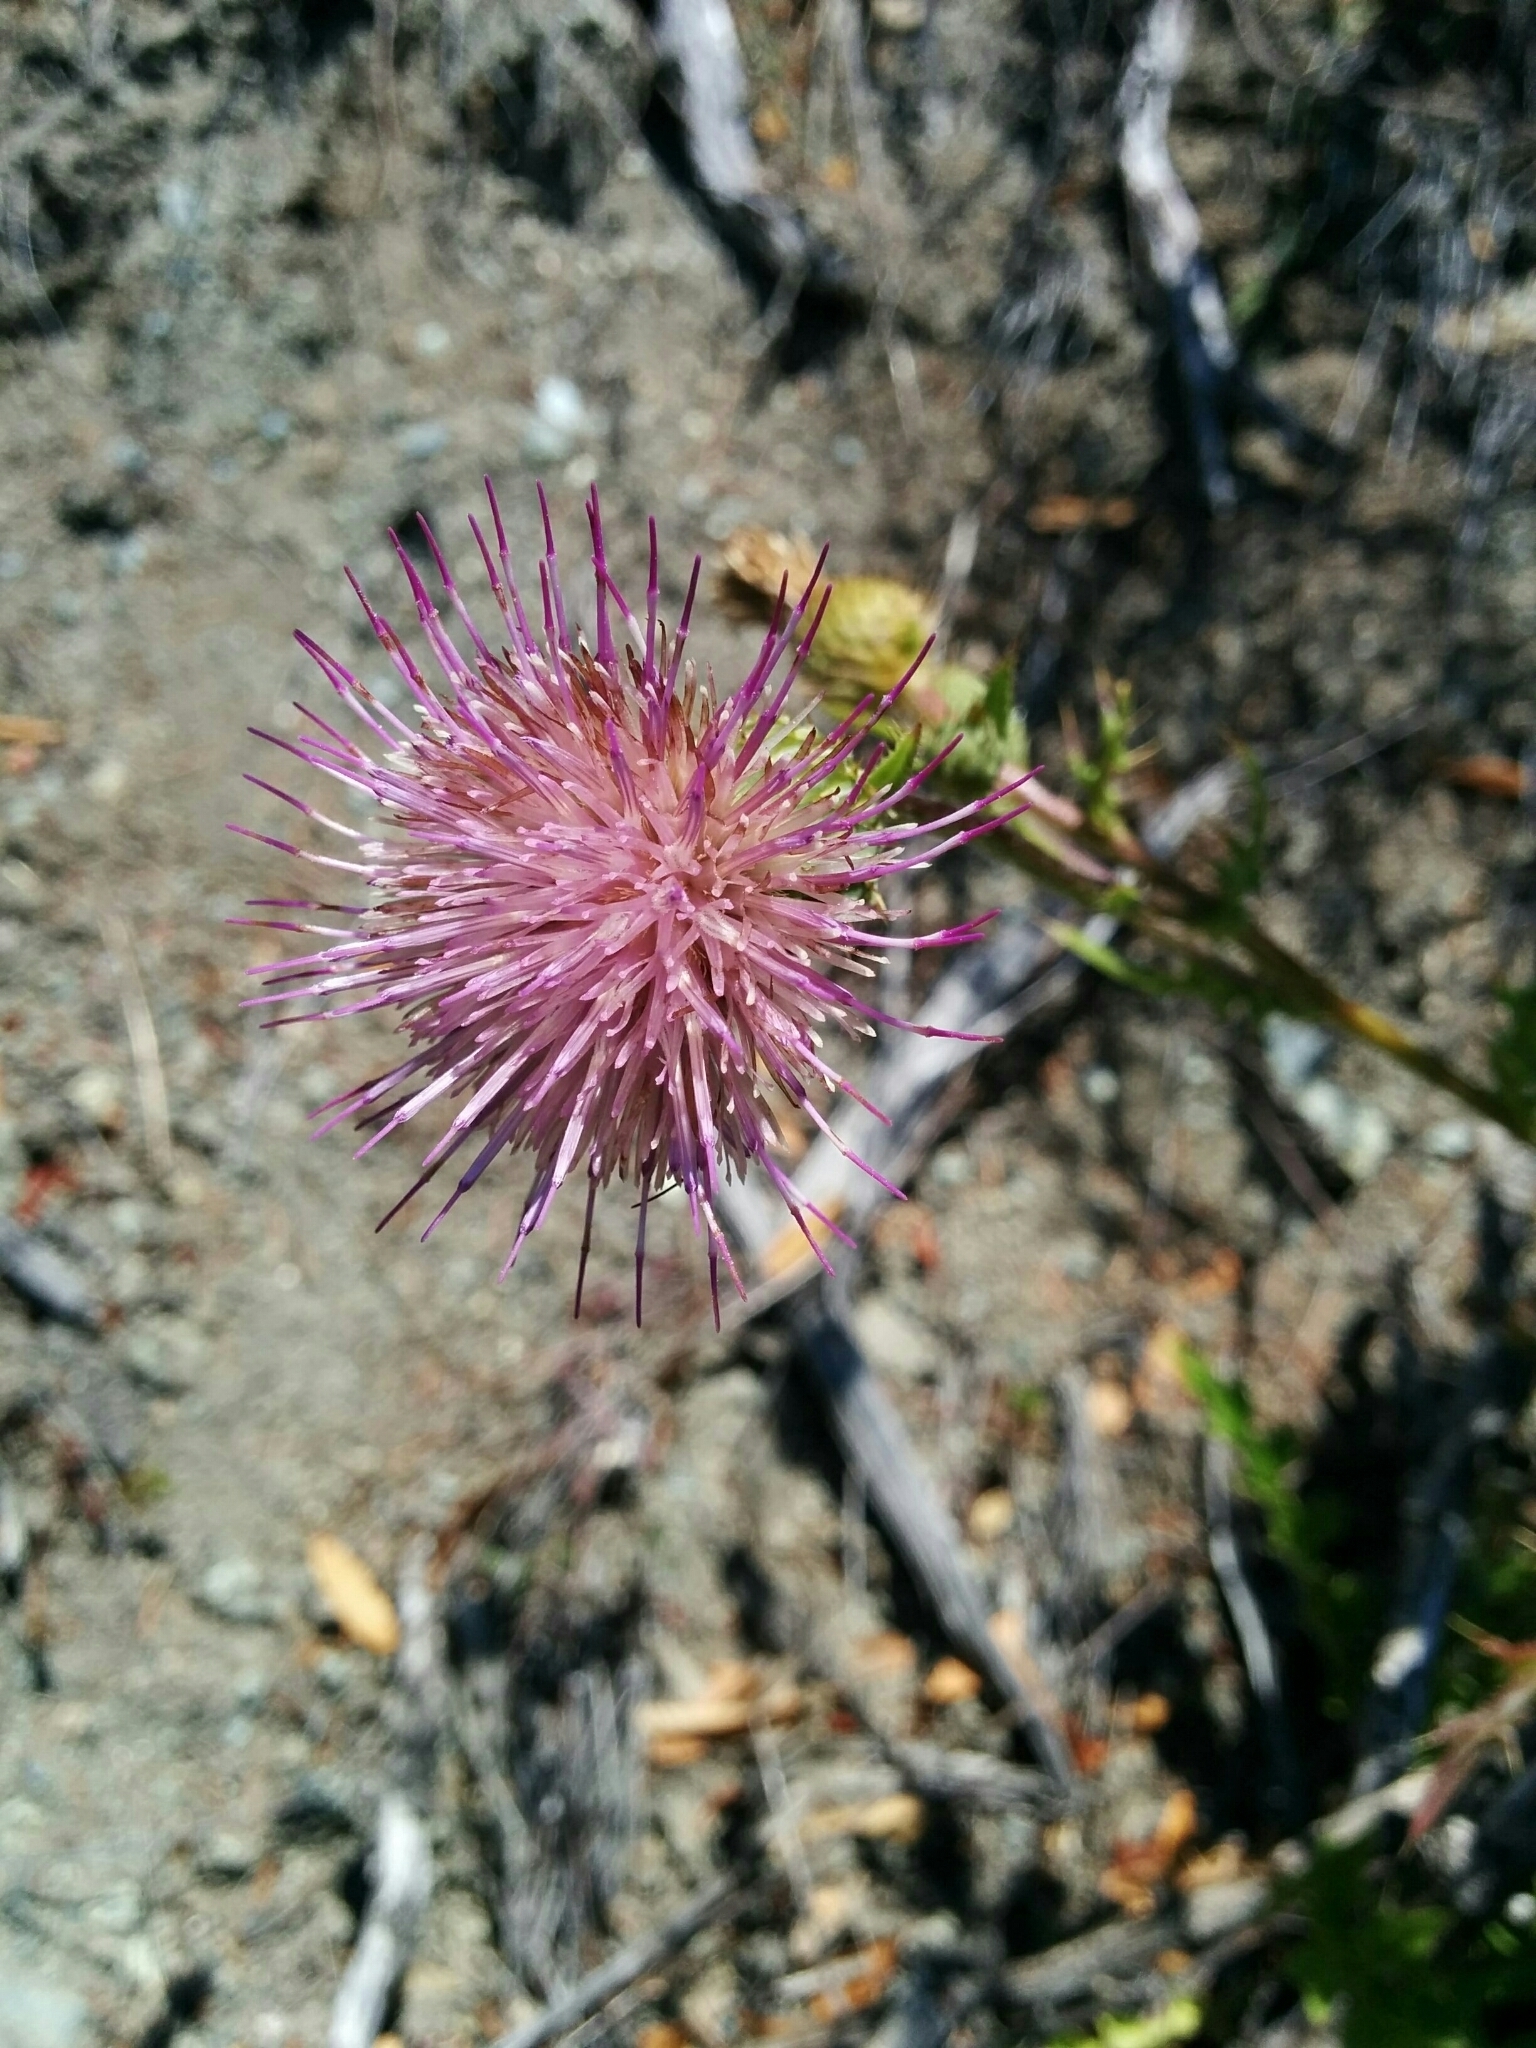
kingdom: Plantae
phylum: Tracheophyta
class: Magnoliopsida
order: Asterales
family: Asteraceae
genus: Cirsium
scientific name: Cirsium hydrophilum
